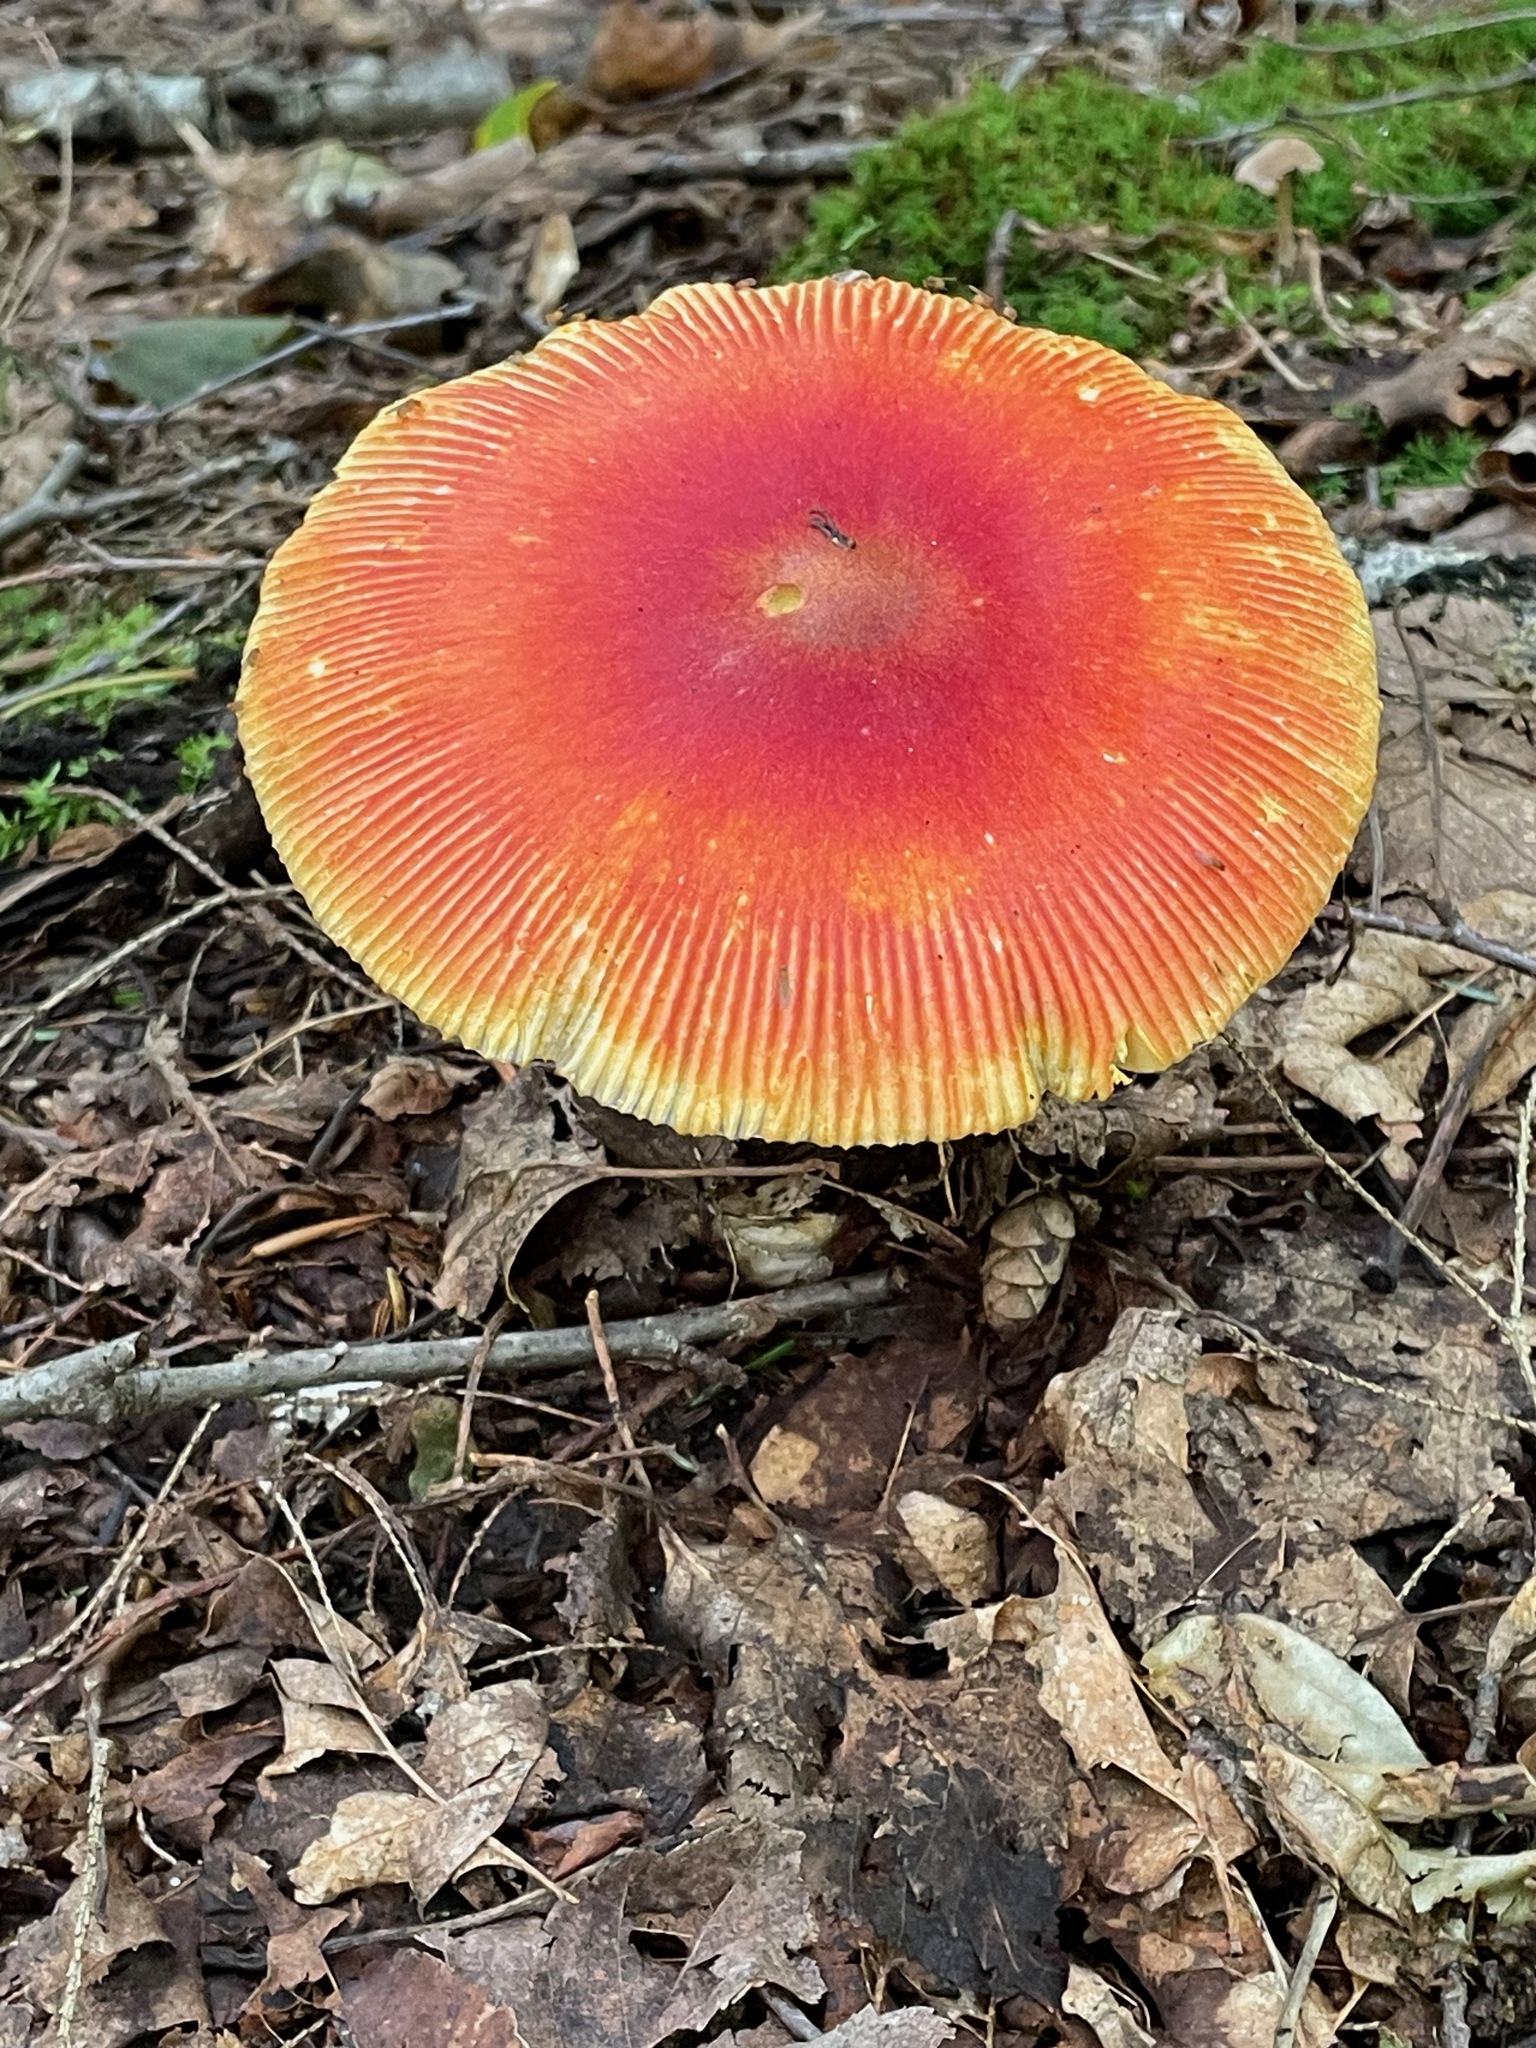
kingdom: Fungi
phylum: Basidiomycota
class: Agaricomycetes
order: Agaricales
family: Amanitaceae
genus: Amanita
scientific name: Amanita jacksonii
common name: Jackson's slender caesar
